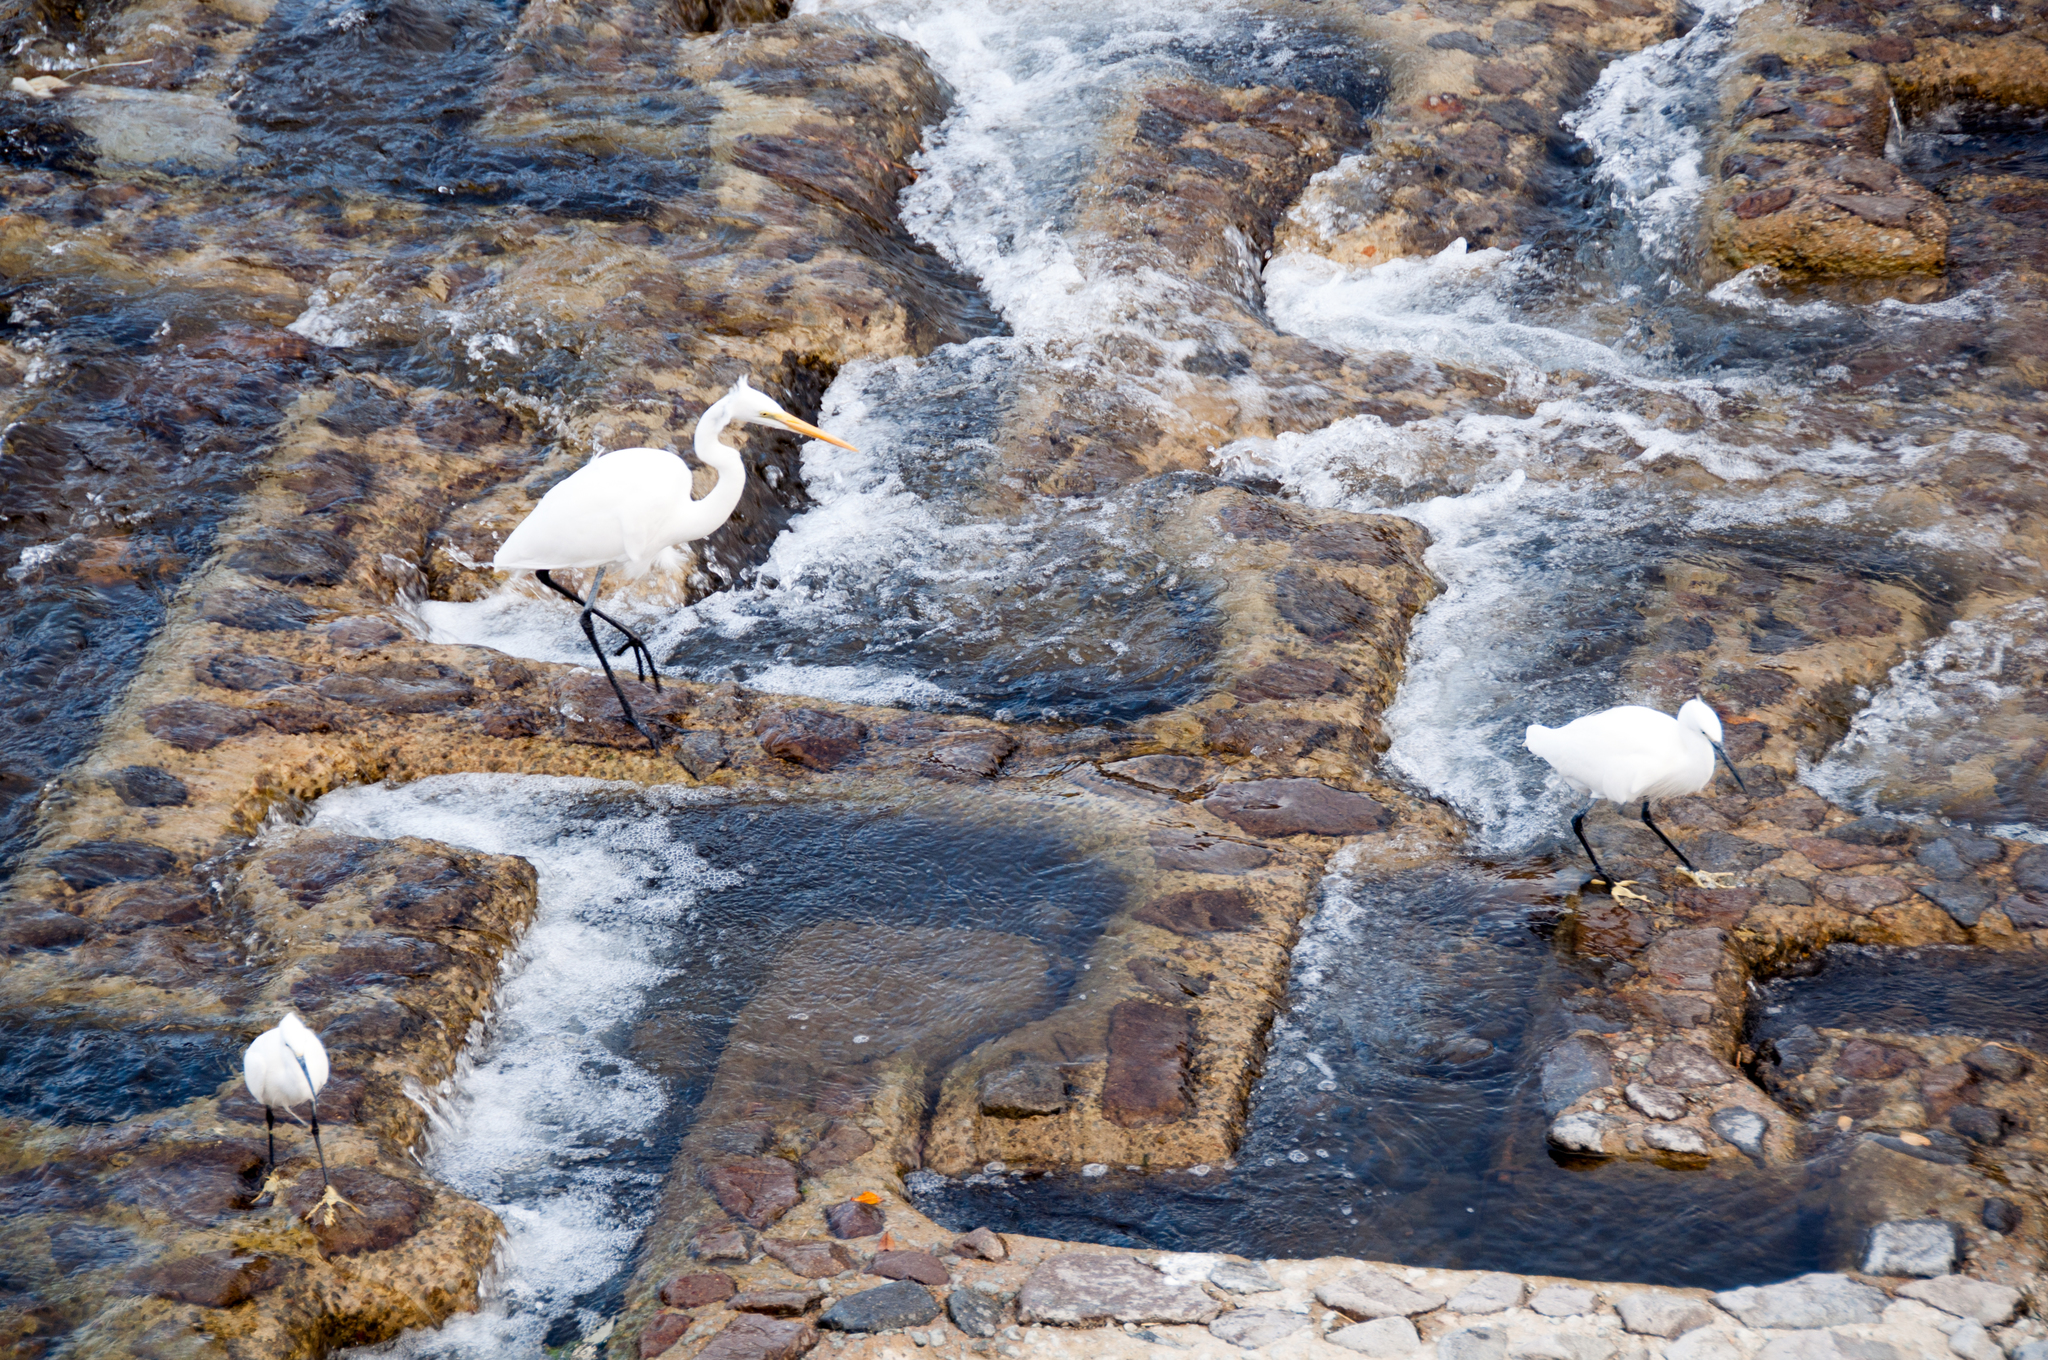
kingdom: Animalia
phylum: Chordata
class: Aves
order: Pelecaniformes
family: Ardeidae
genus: Ardea
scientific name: Ardea alba
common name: Great egret
